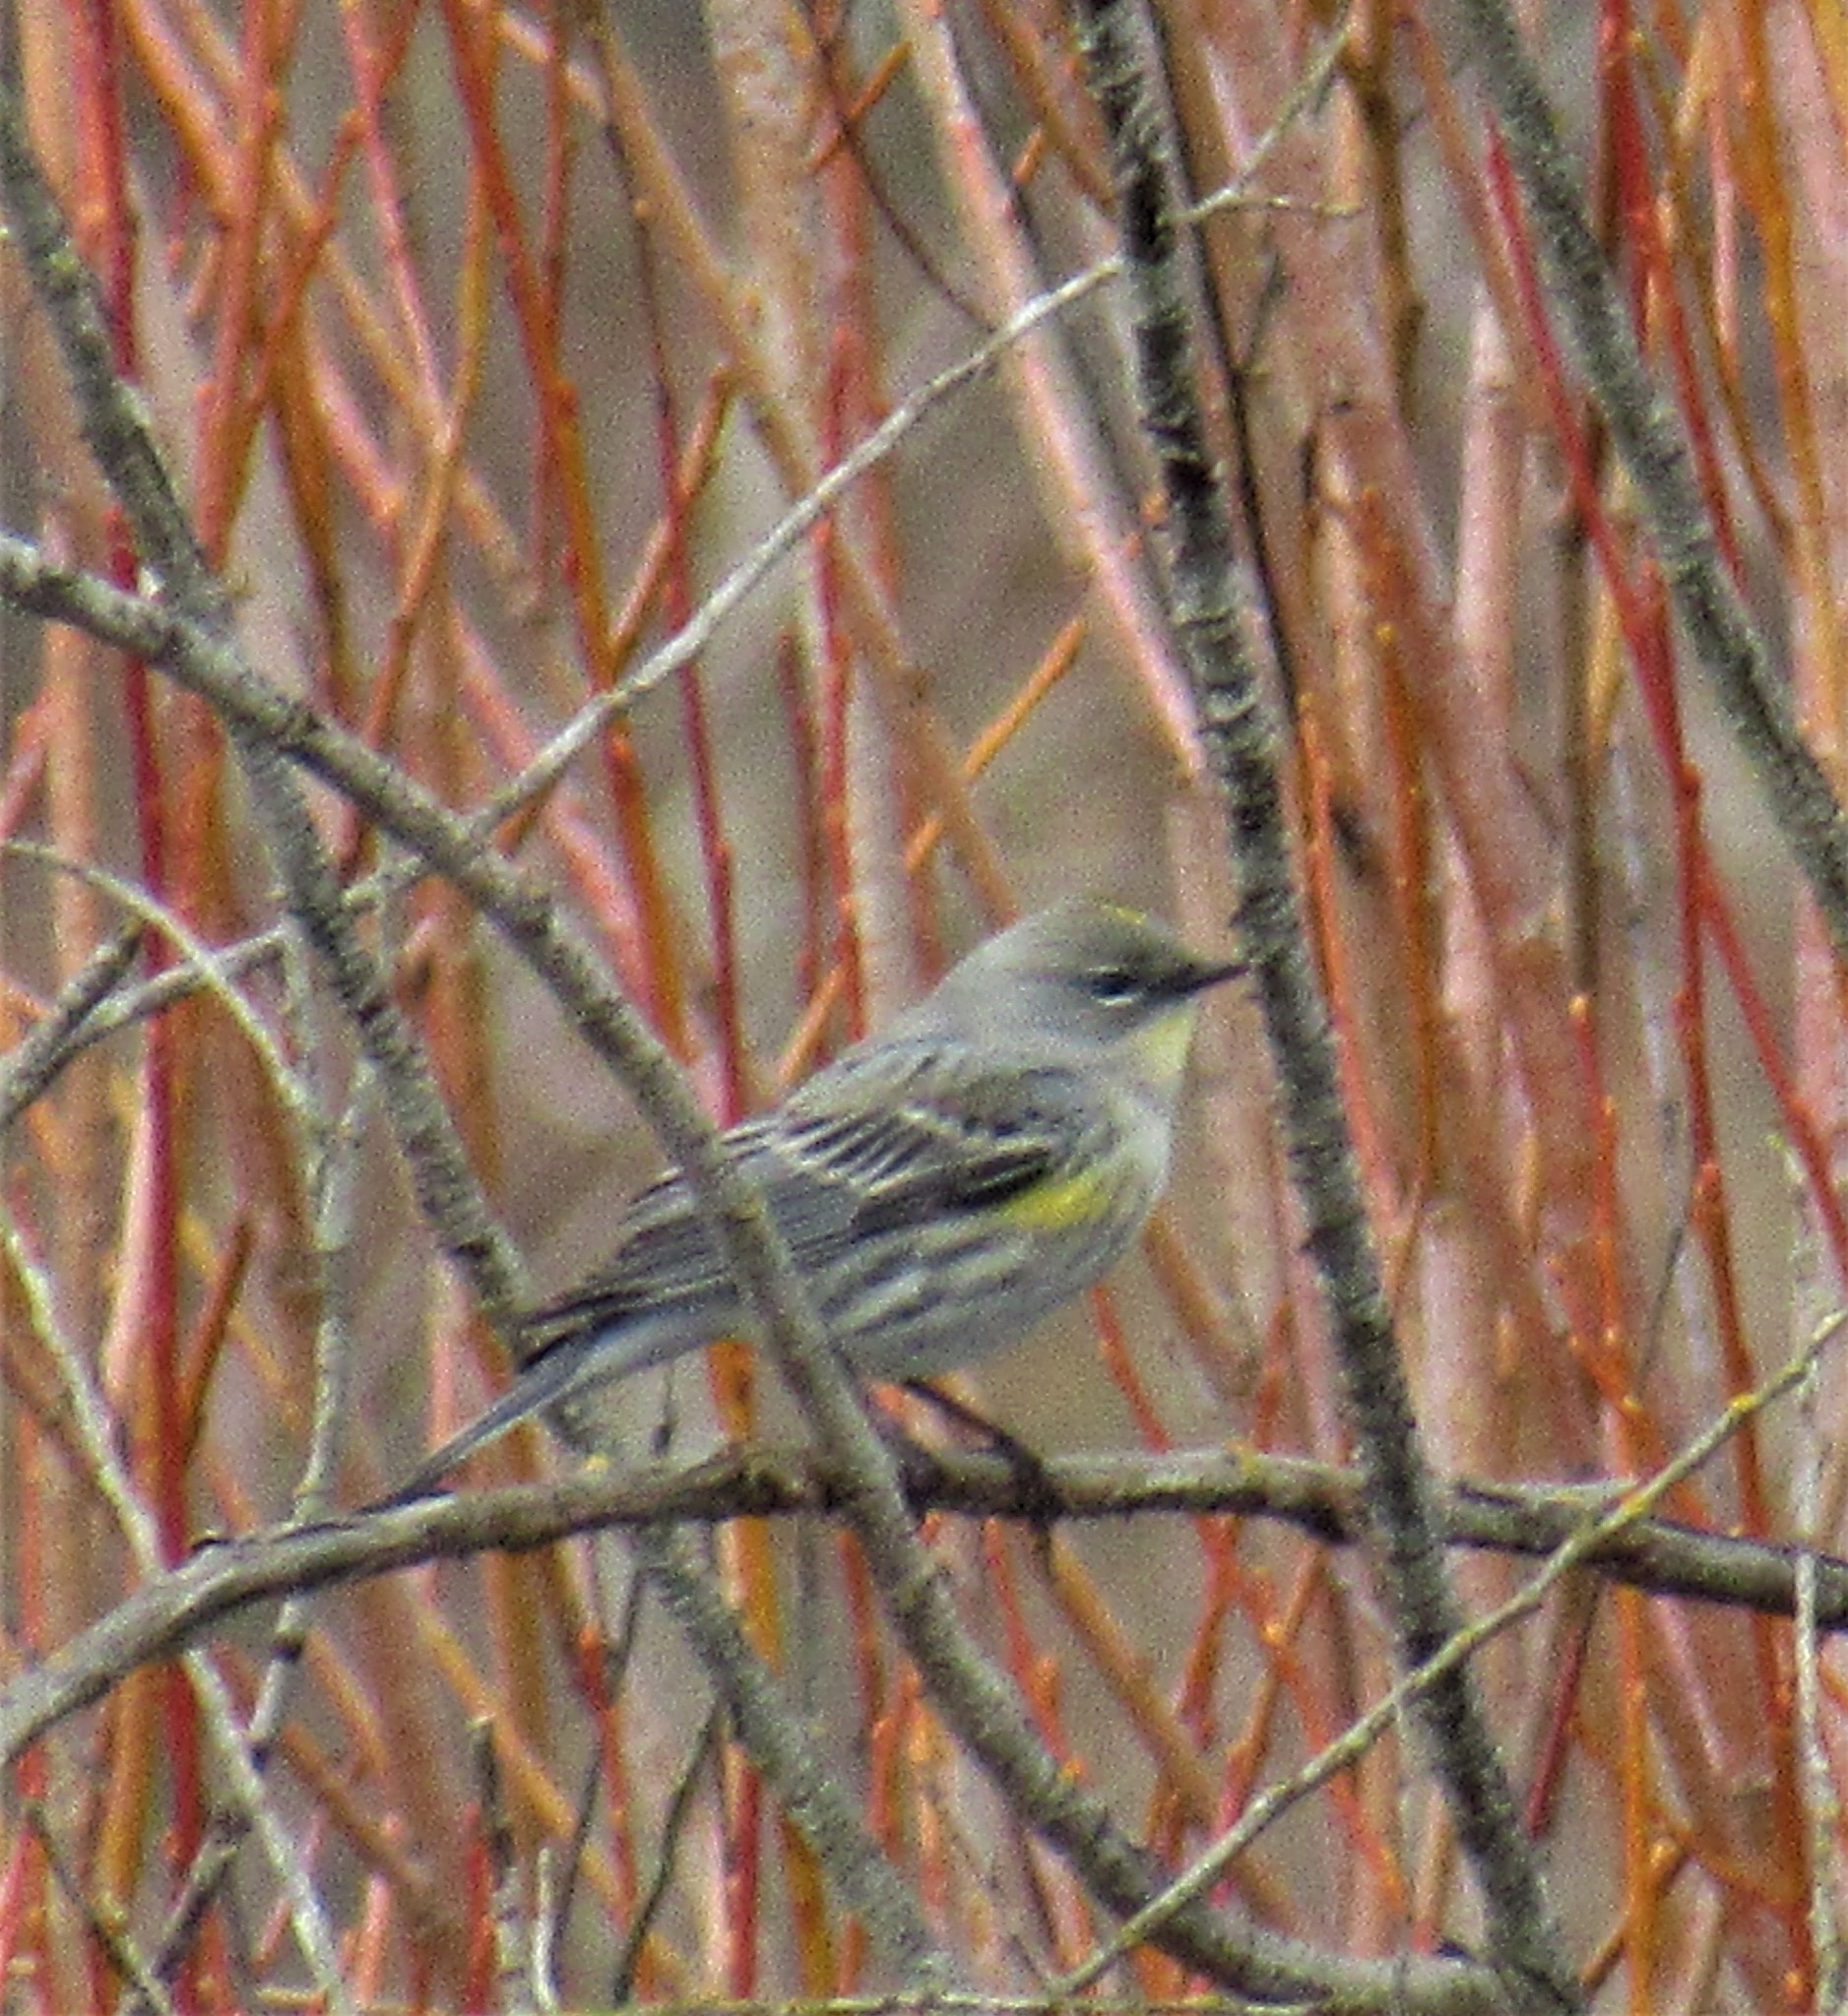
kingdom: Animalia
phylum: Chordata
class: Aves
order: Passeriformes
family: Parulidae
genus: Setophaga
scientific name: Setophaga auduboni
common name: Audubon's warbler
